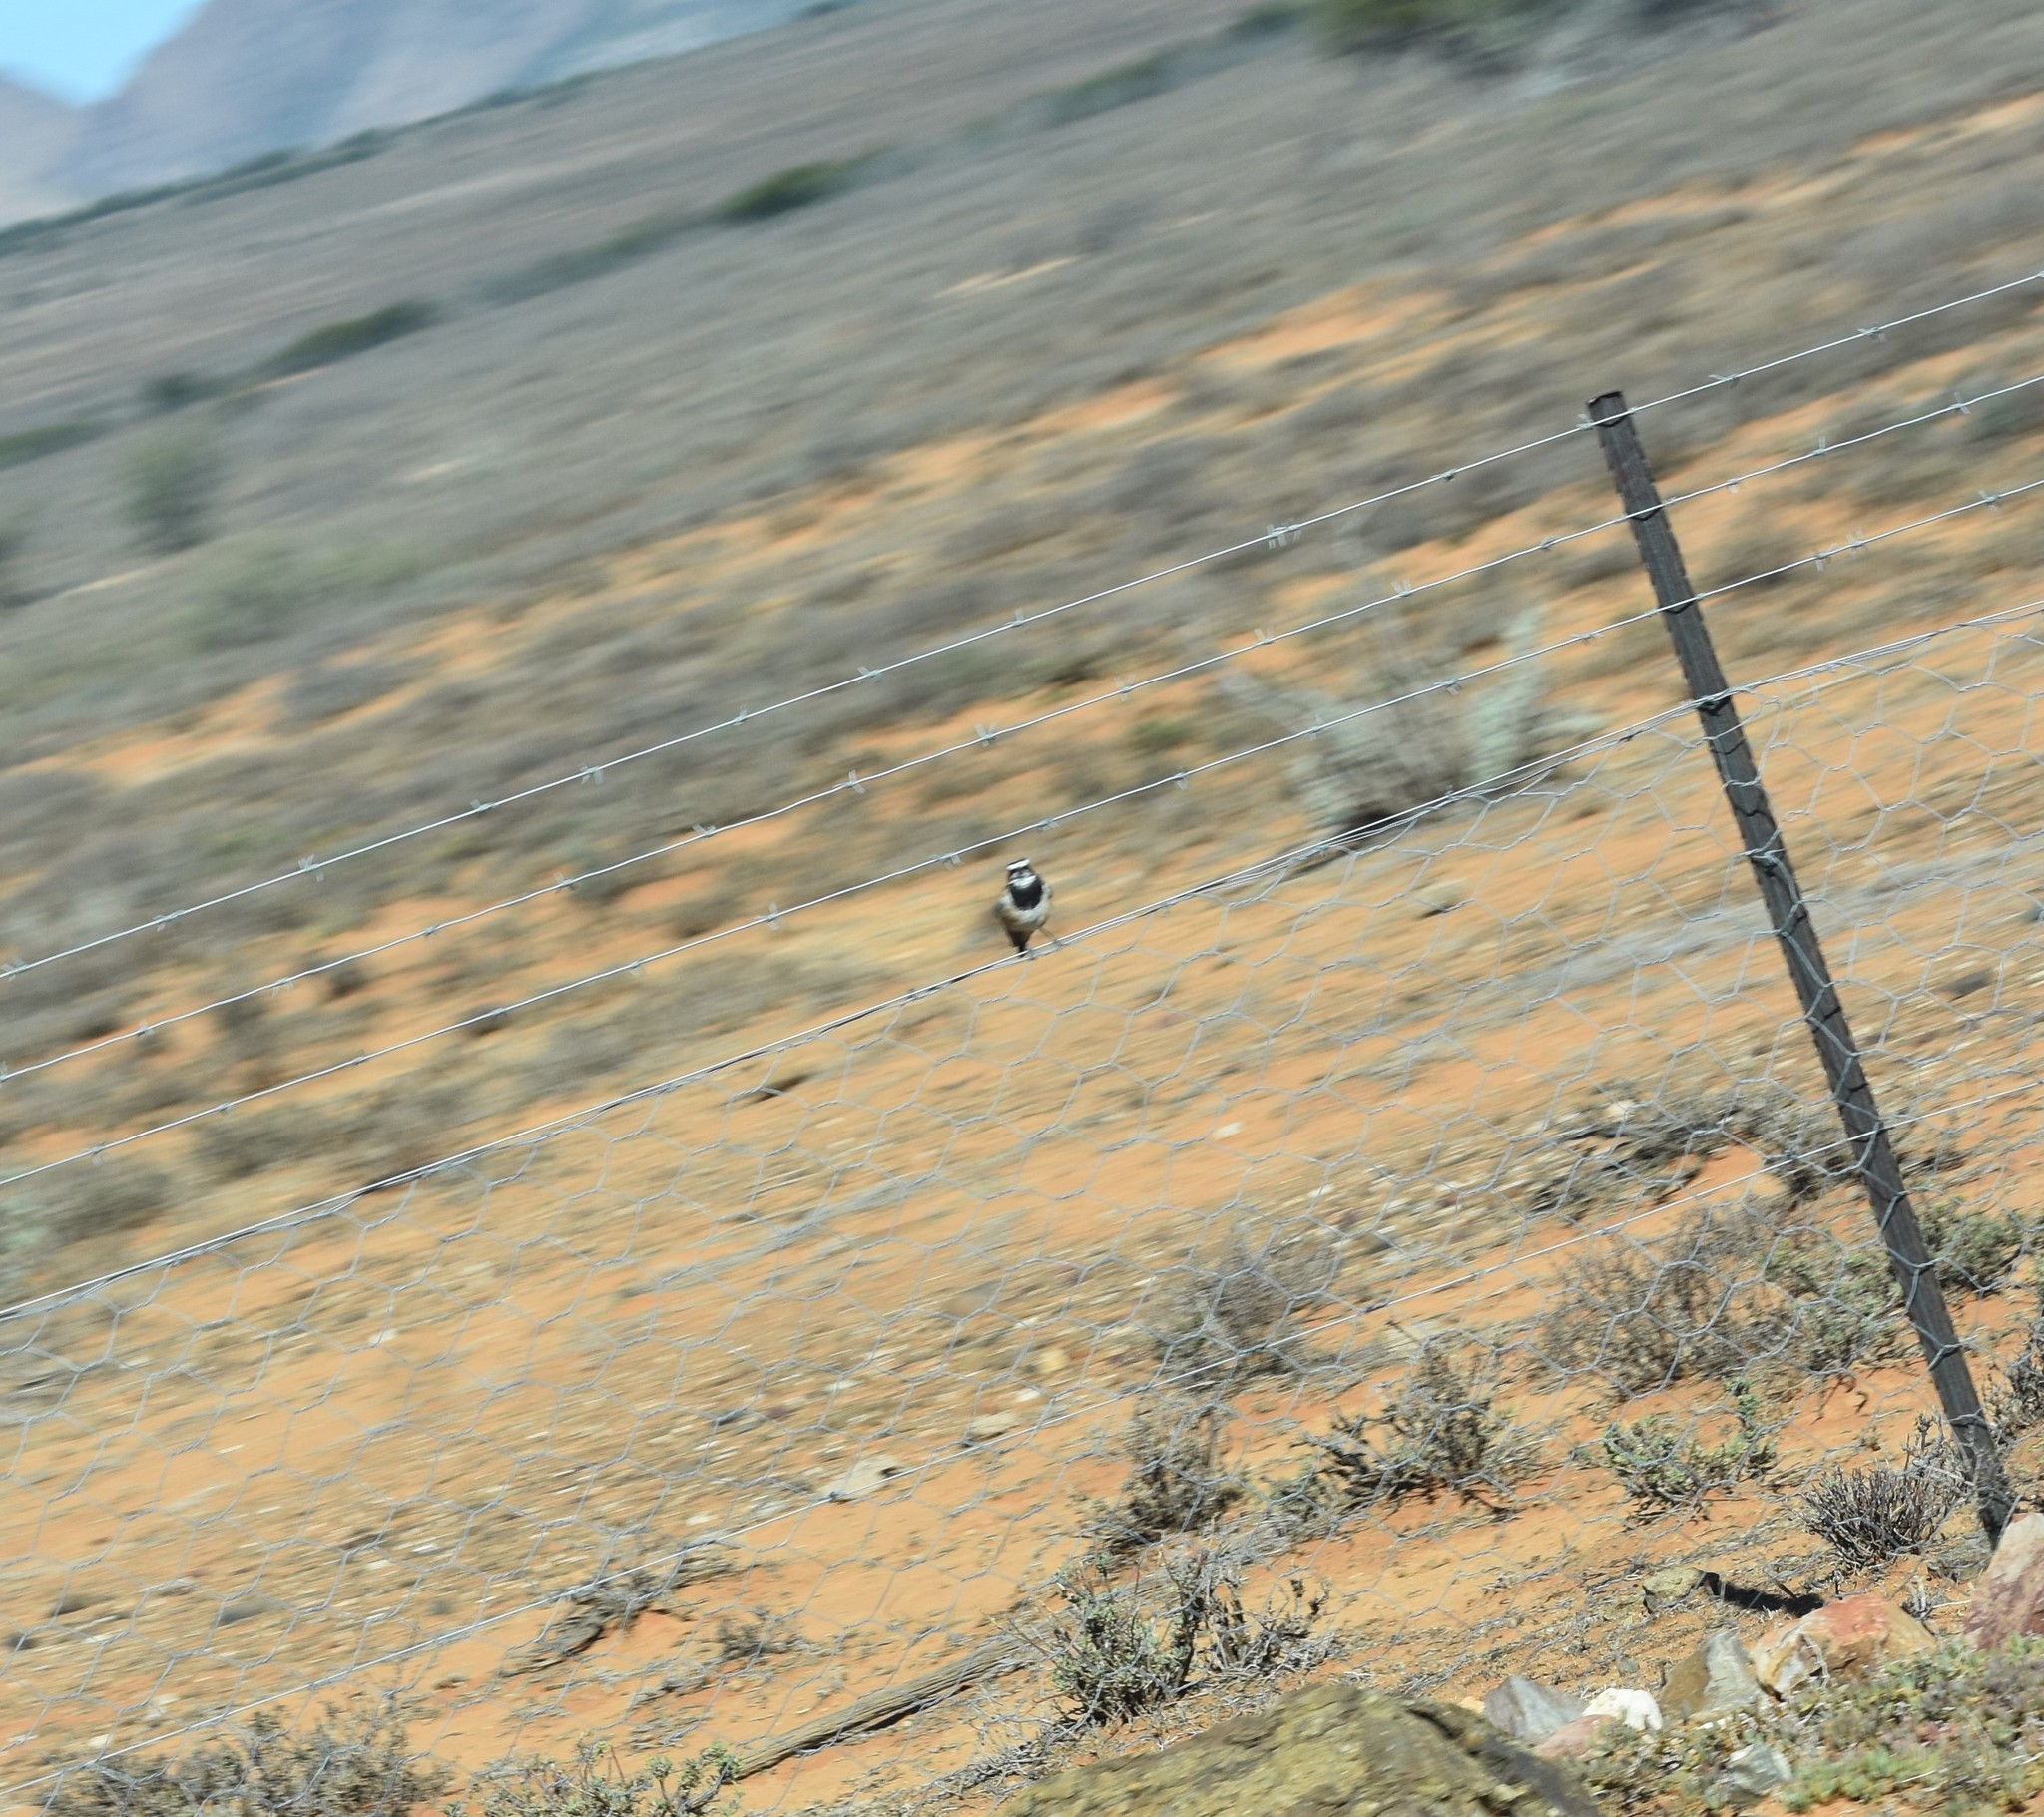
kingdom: Animalia
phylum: Chordata
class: Aves
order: Passeriformes
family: Muscicapidae
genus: Oenanthe
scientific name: Oenanthe pileata
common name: Capped wheatear
